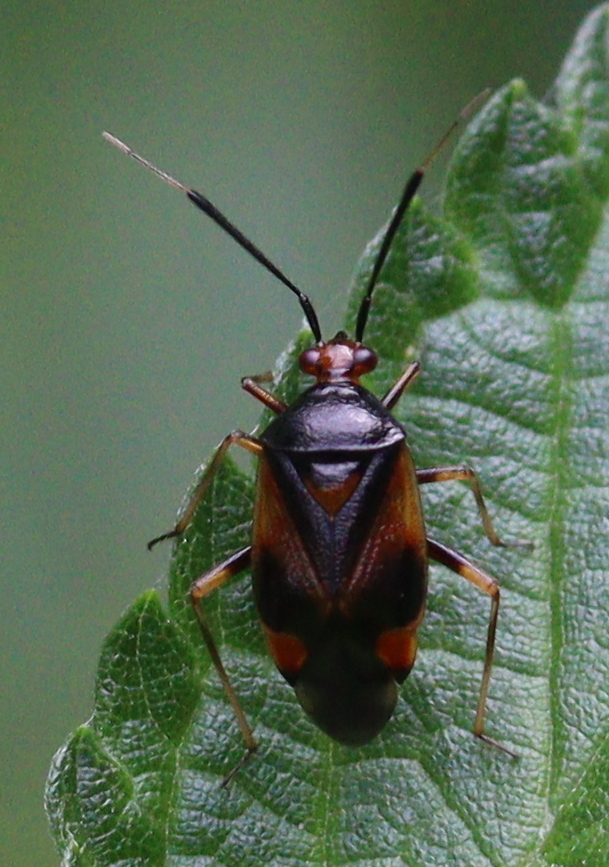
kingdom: Animalia
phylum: Arthropoda
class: Insecta
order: Hemiptera
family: Miridae
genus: Deraeocoris
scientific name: Deraeocoris ruber
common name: Plant bug
